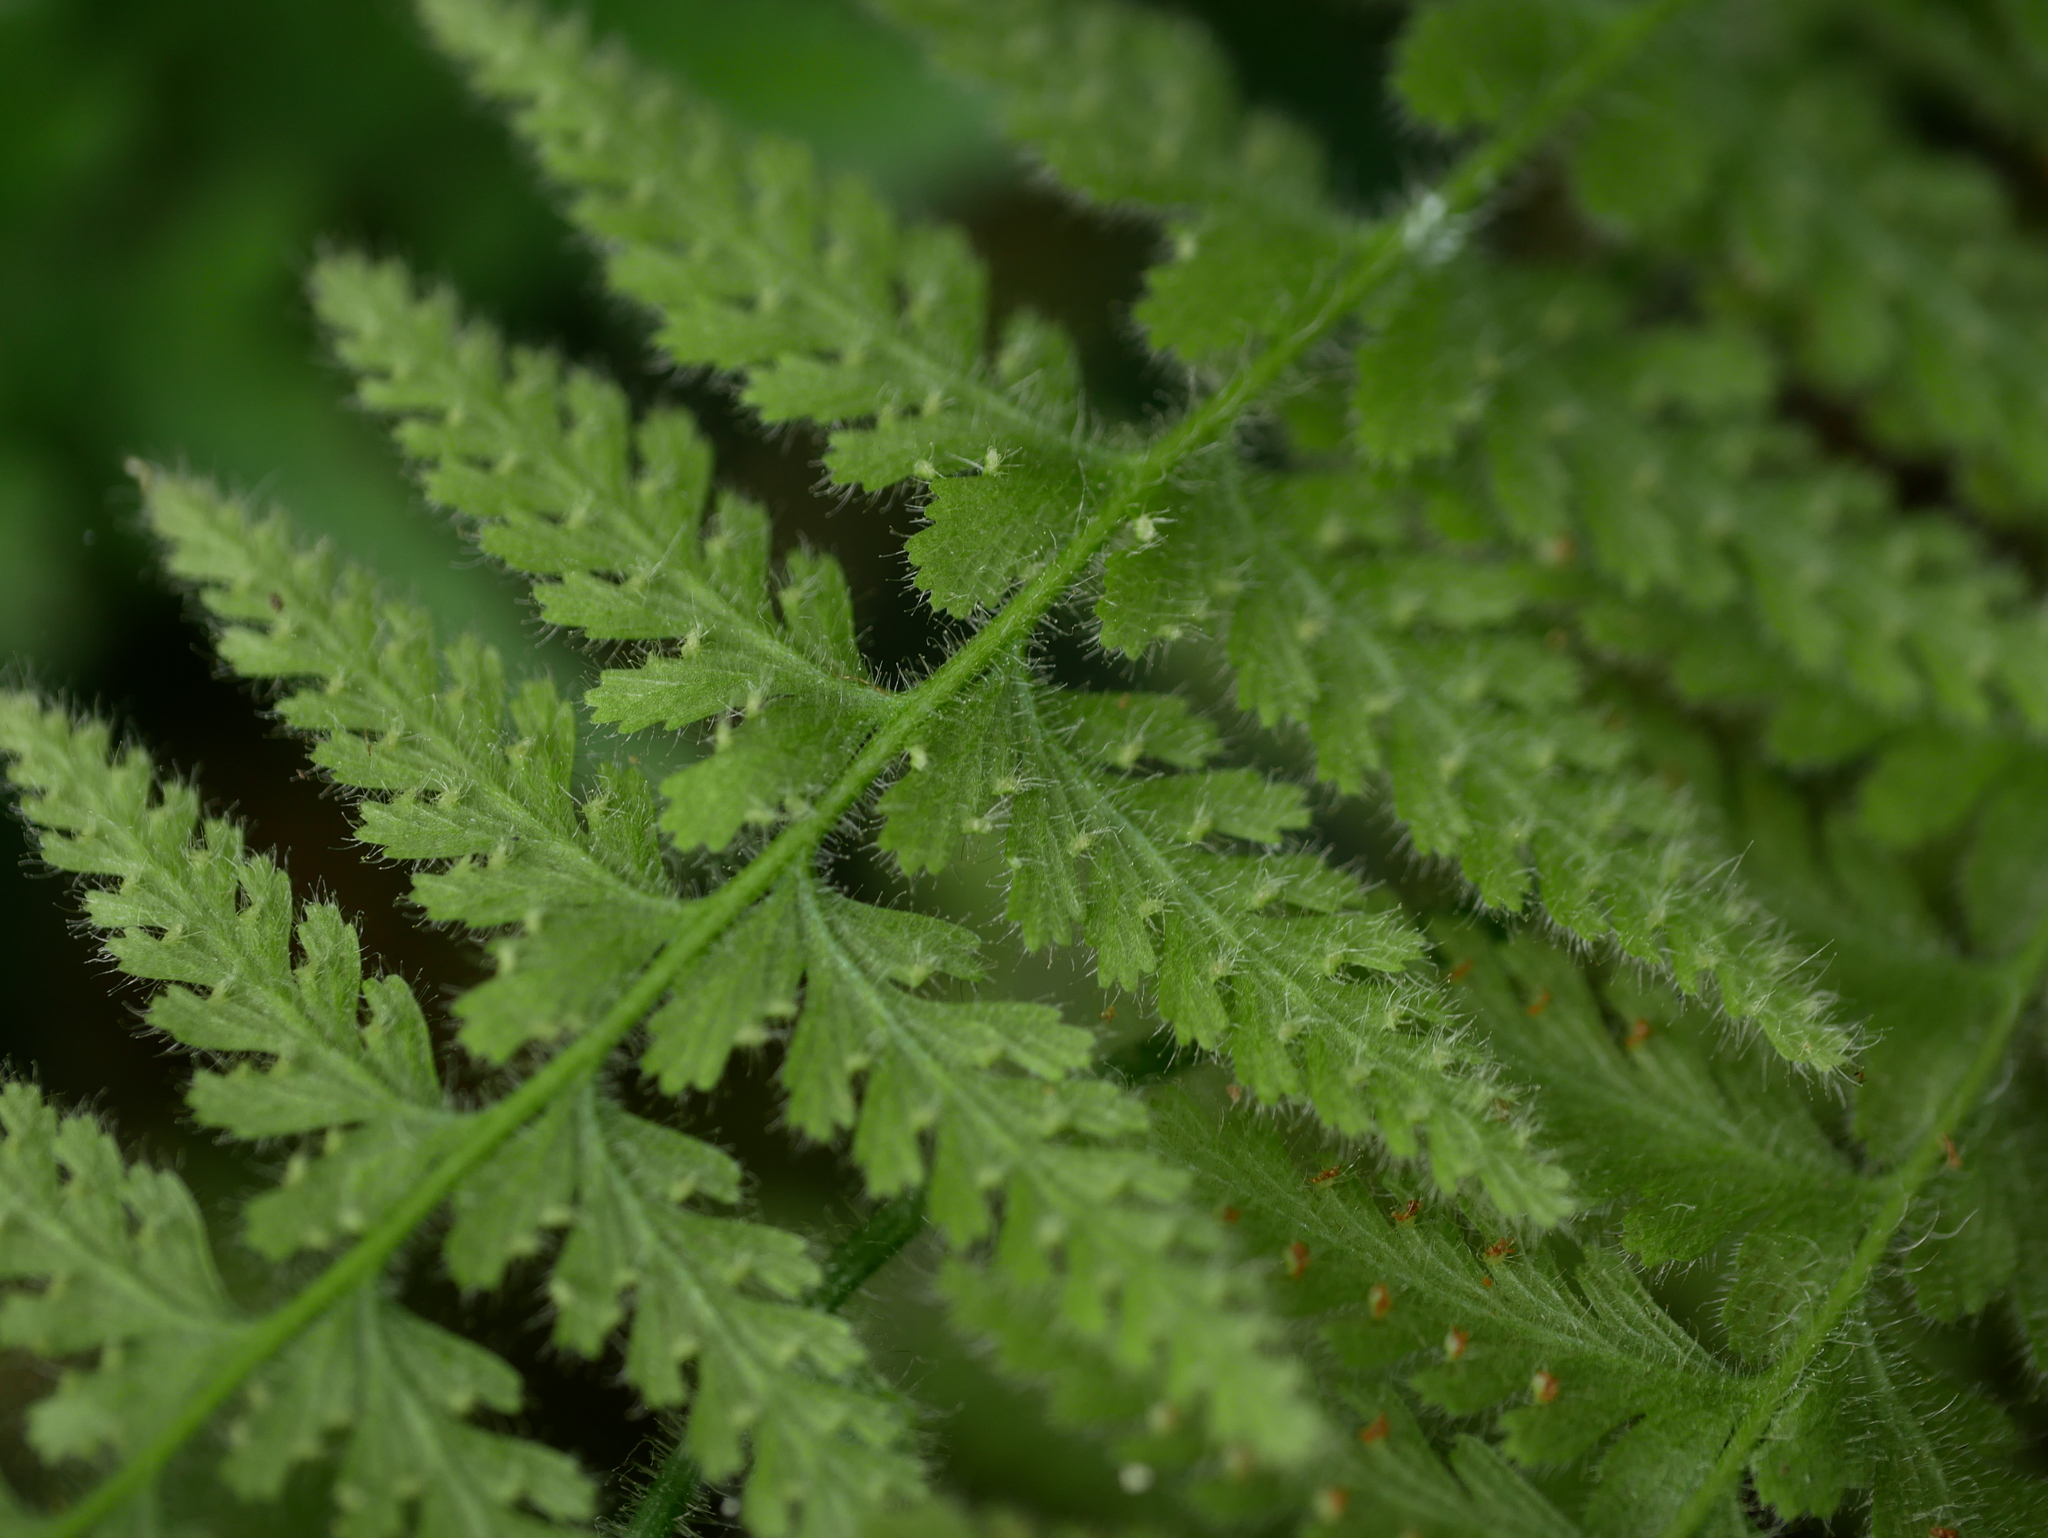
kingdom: Plantae
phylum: Tracheophyta
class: Polypodiopsida
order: Polypodiales
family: Dennstaedtiaceae
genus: Sitobolium
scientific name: Sitobolium hirsutum
